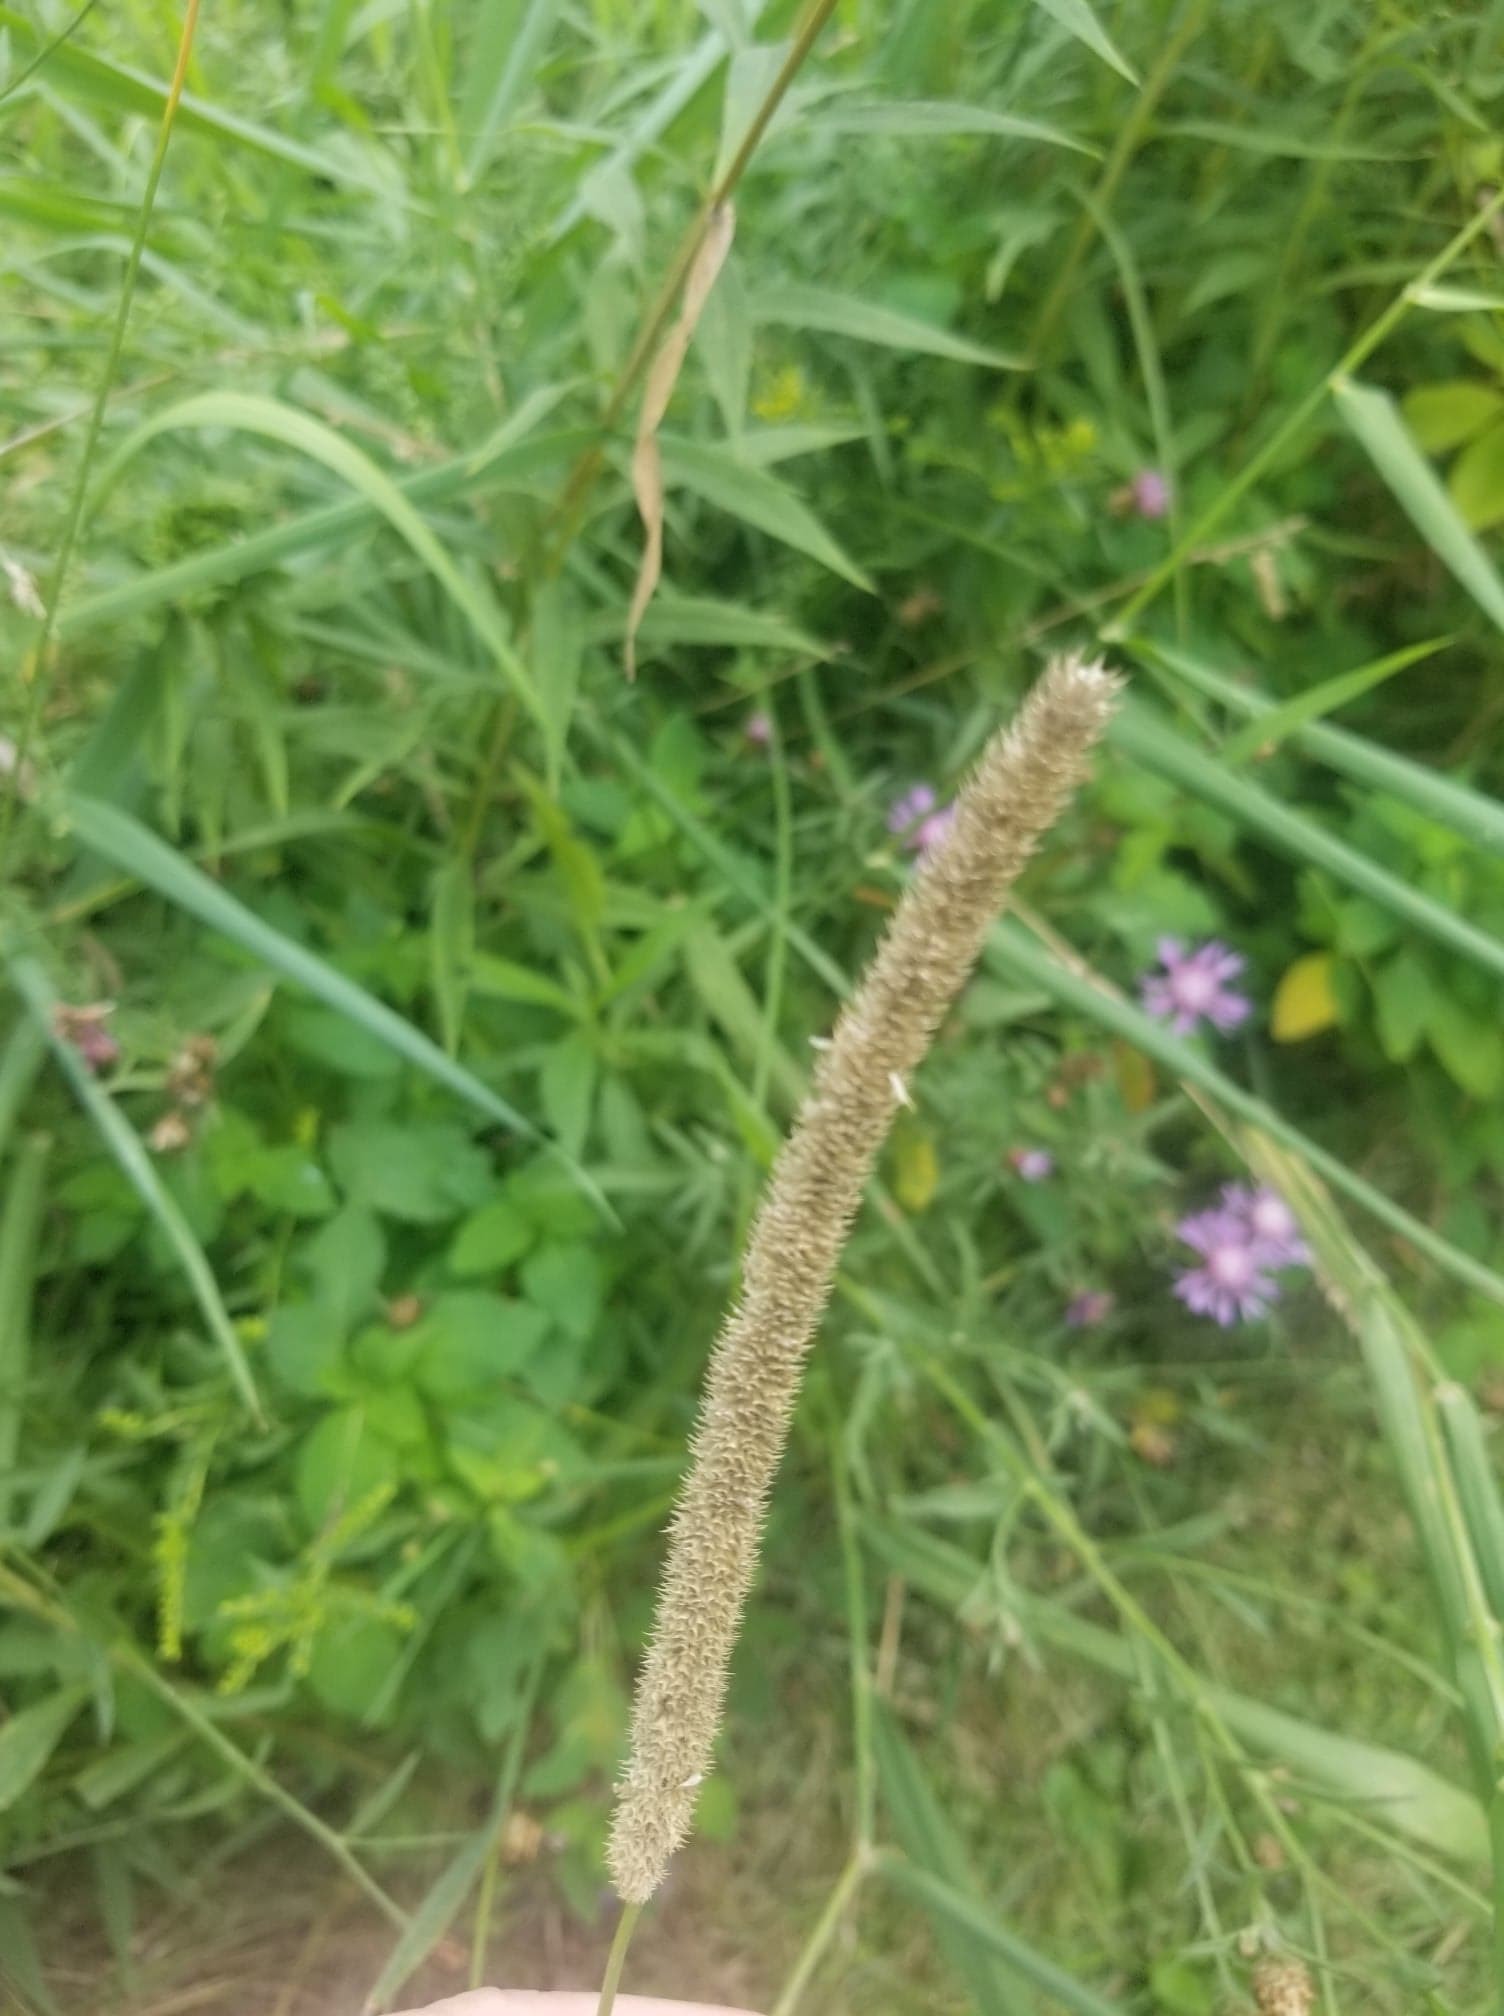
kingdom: Plantae
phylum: Tracheophyta
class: Liliopsida
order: Poales
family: Poaceae
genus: Phleum
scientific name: Phleum pratense
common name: Timothy grass
